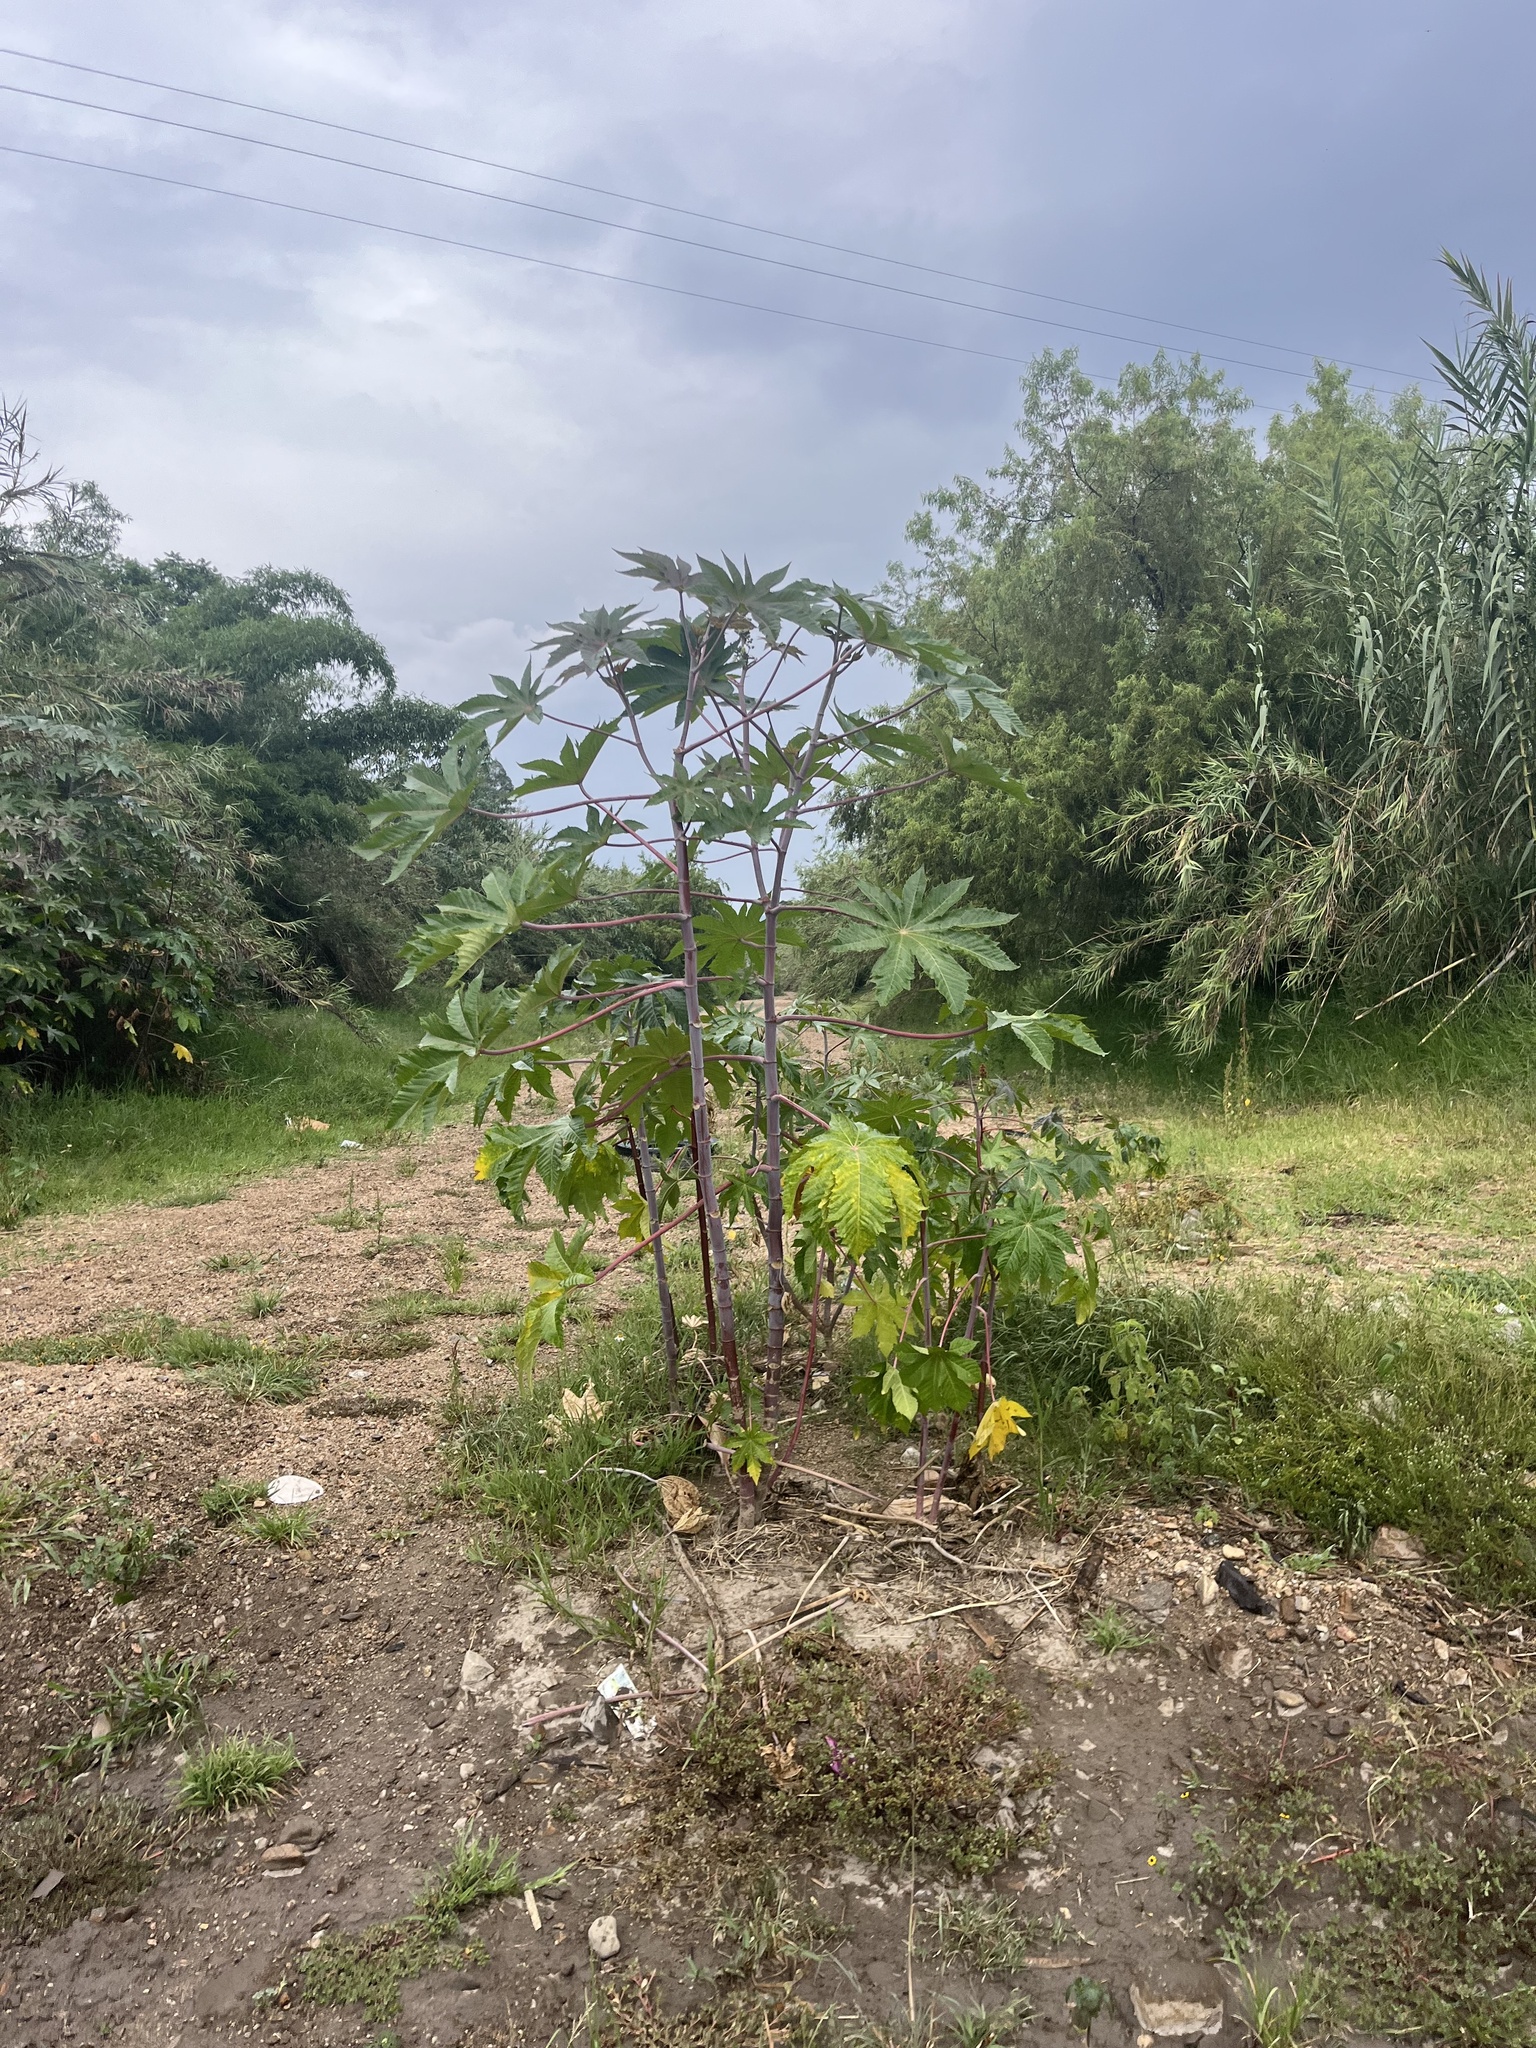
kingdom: Plantae
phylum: Tracheophyta
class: Magnoliopsida
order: Malpighiales
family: Euphorbiaceae
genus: Ricinus
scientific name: Ricinus communis
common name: Castor-oil-plant
